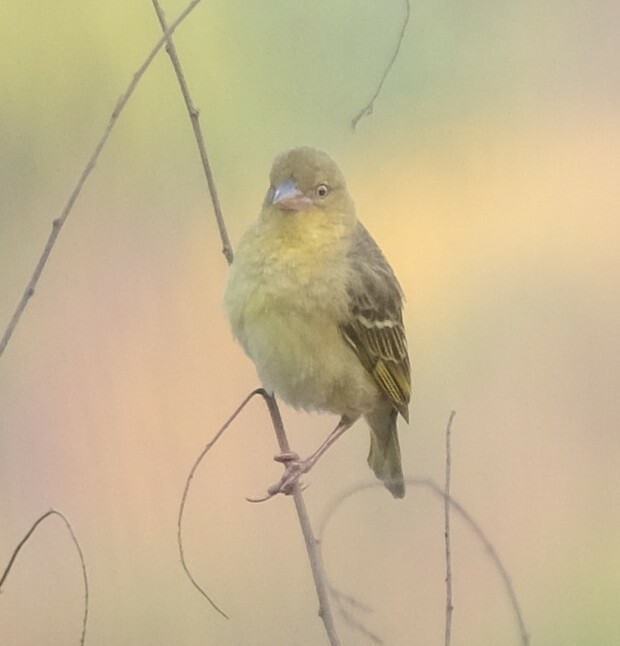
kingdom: Animalia
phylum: Chordata
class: Aves
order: Passeriformes
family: Ploceidae
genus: Ploceus
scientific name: Ploceus intermedius
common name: Lesser masked weaver
